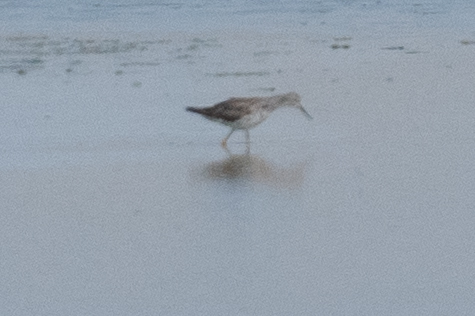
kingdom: Animalia
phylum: Chordata
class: Aves
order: Charadriiformes
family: Scolopacidae
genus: Tringa
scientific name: Tringa melanoleuca
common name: Greater yellowlegs
